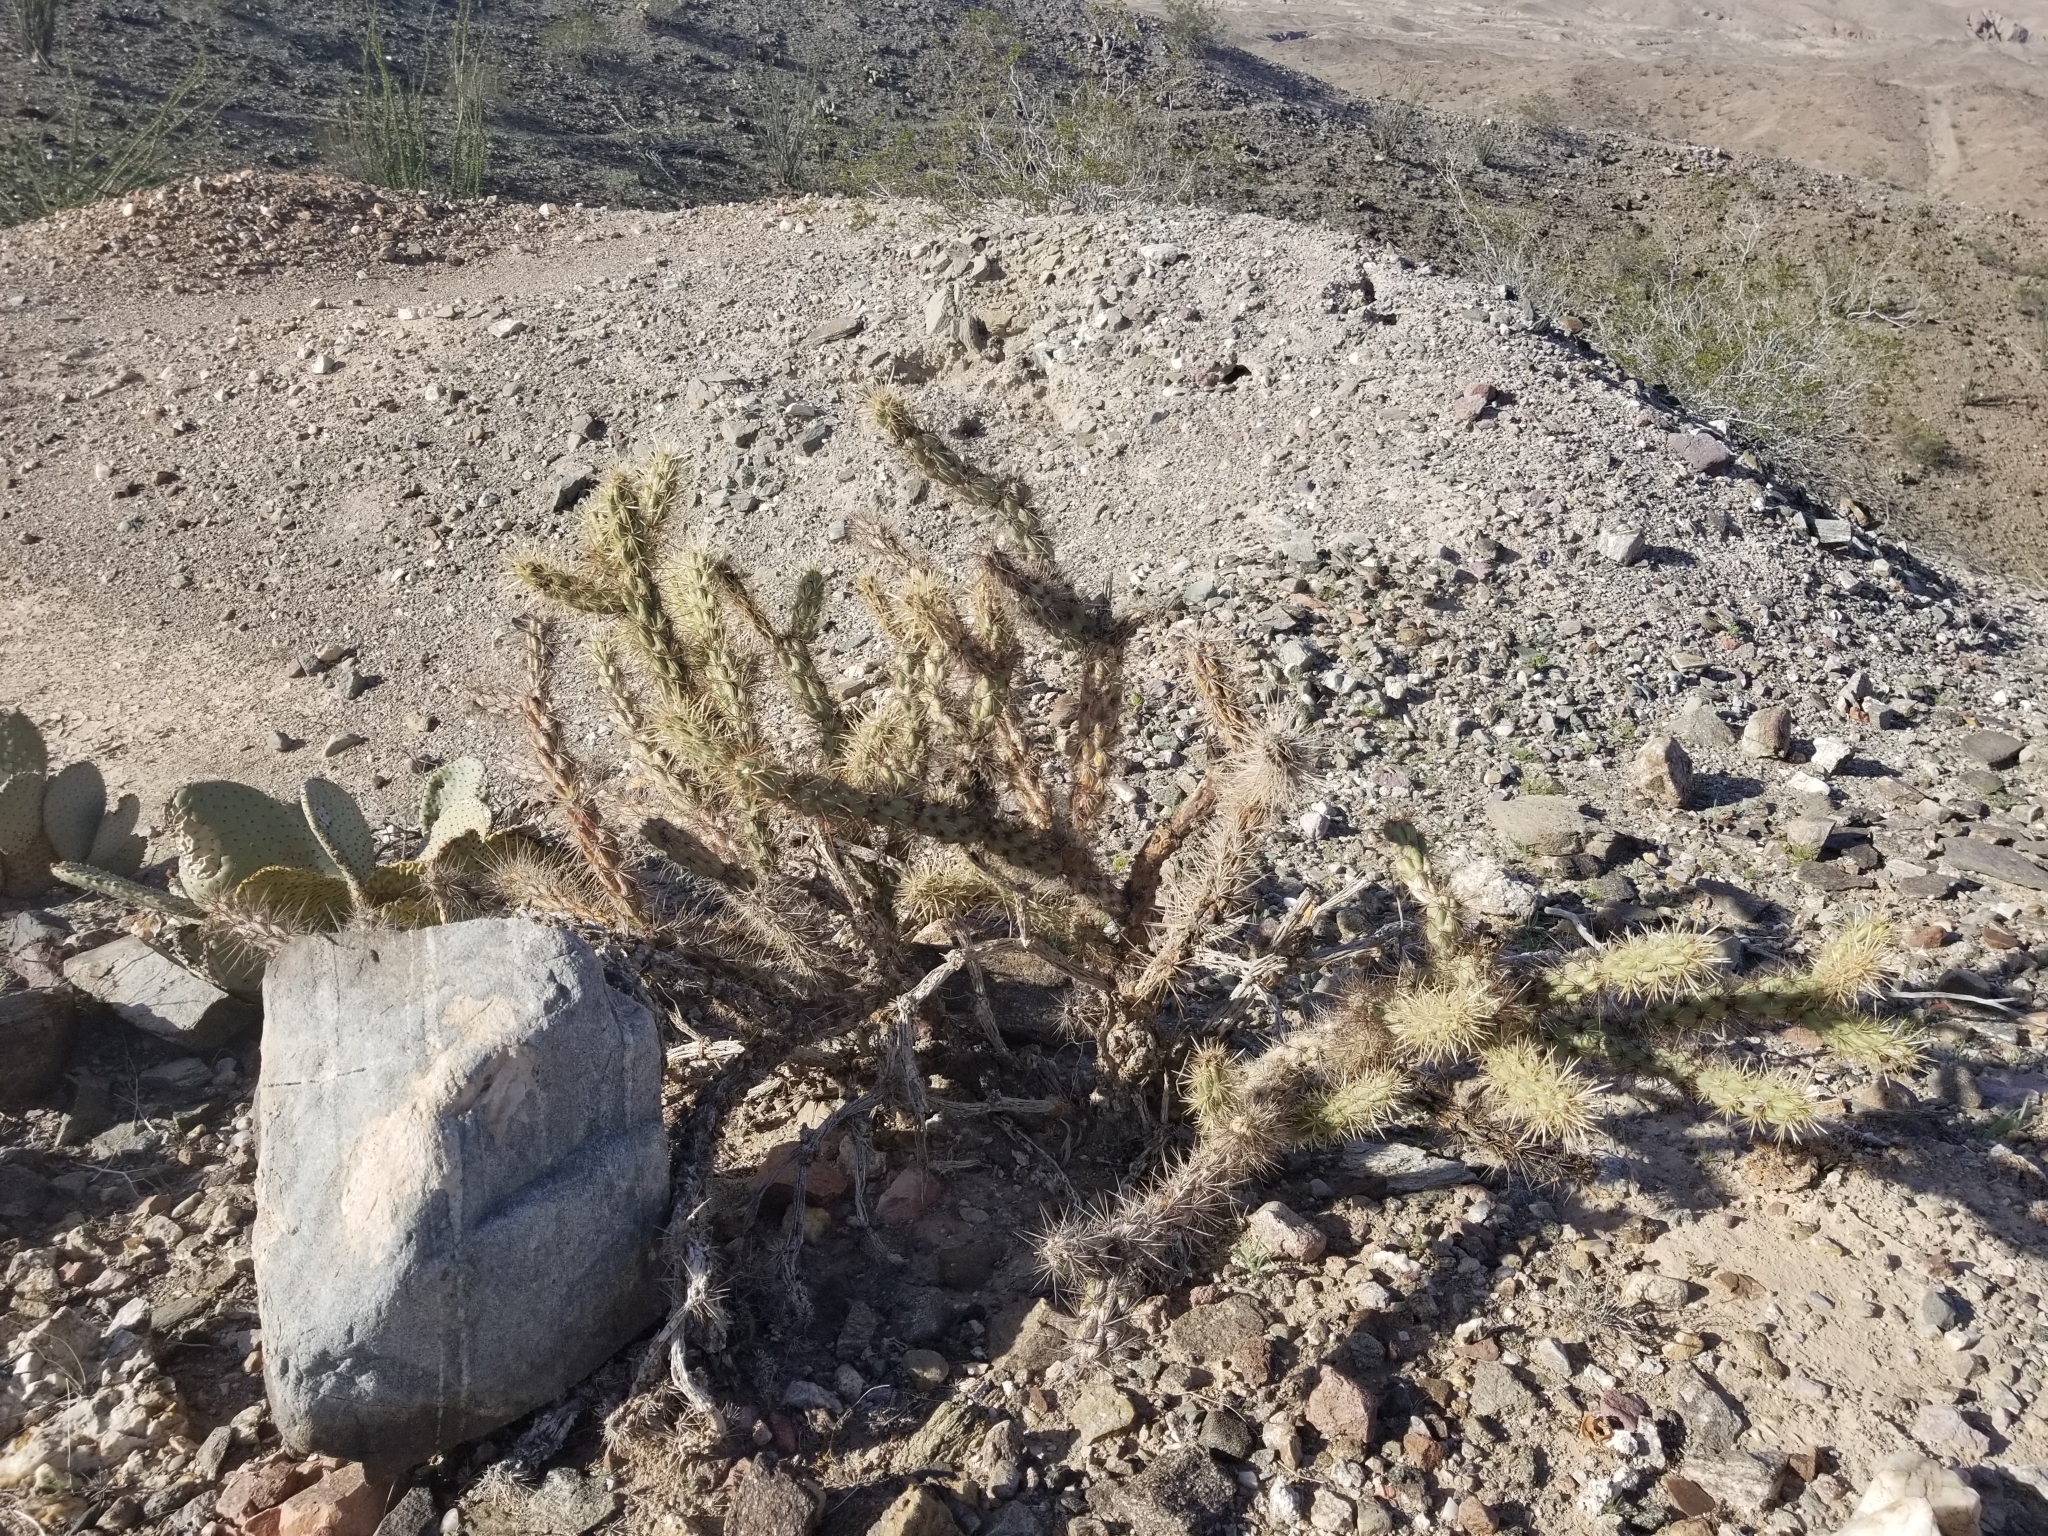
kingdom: Plantae
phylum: Tracheophyta
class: Magnoliopsida
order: Caryophyllales
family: Cactaceae
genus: Cylindropuntia
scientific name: Cylindropuntia acanthocarpa
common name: Buckhorn cholla
